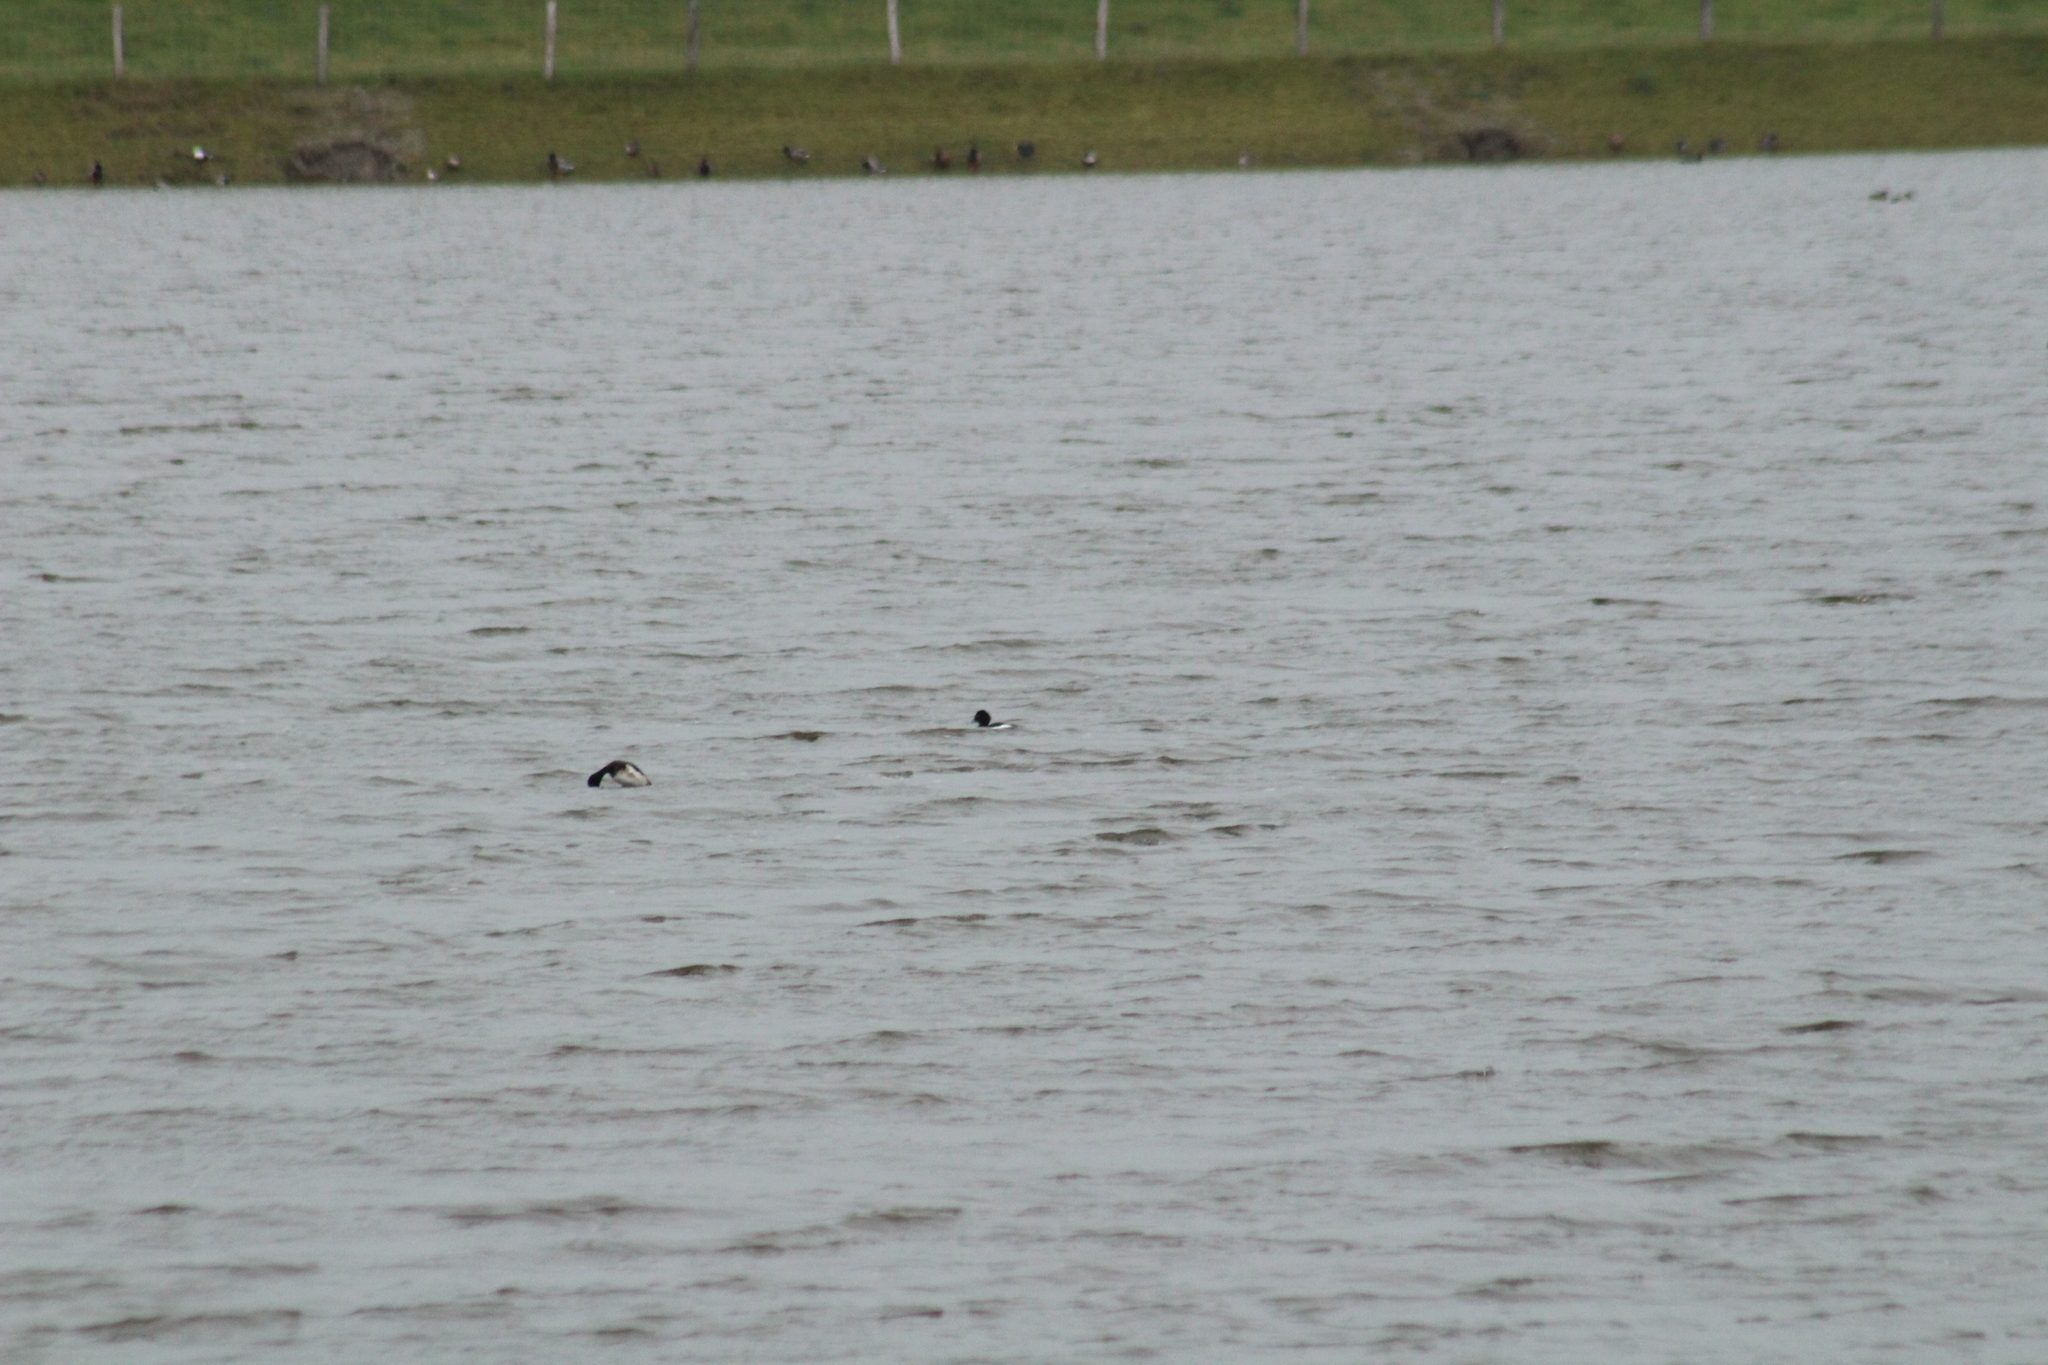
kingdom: Animalia
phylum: Chordata
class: Aves
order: Anseriformes
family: Anatidae
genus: Aythya
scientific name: Aythya fuligula
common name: Tufted duck
